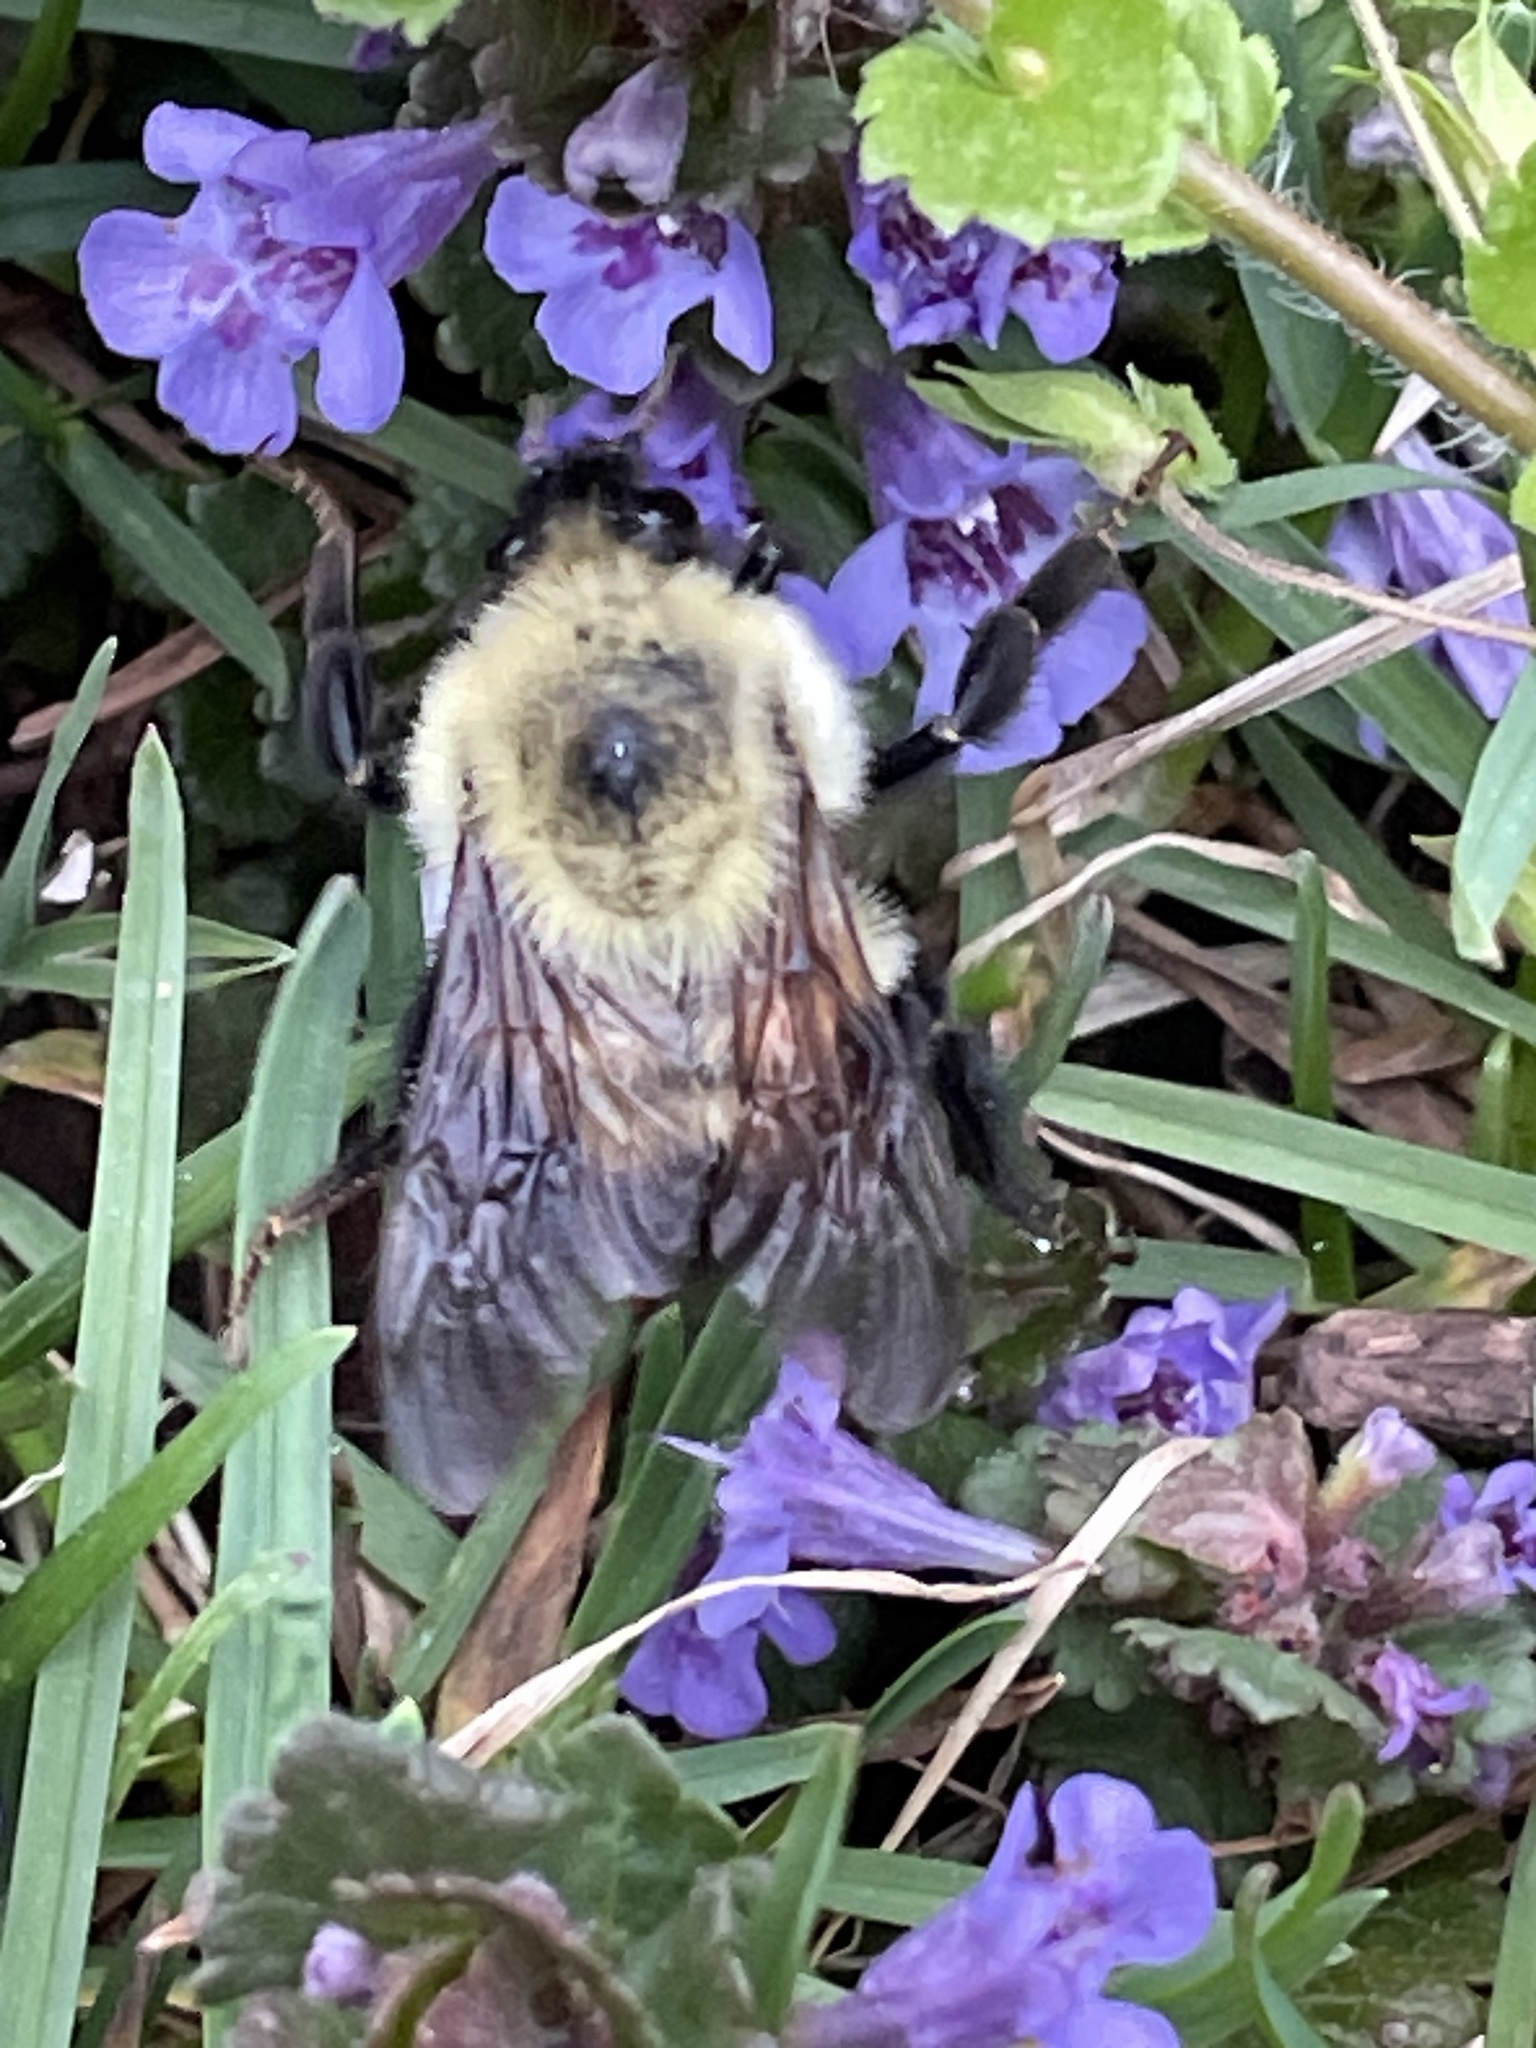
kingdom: Animalia
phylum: Arthropoda
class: Insecta
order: Hymenoptera
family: Apidae
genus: Bombus
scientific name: Bombus bimaculatus
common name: Two-spotted bumble bee
